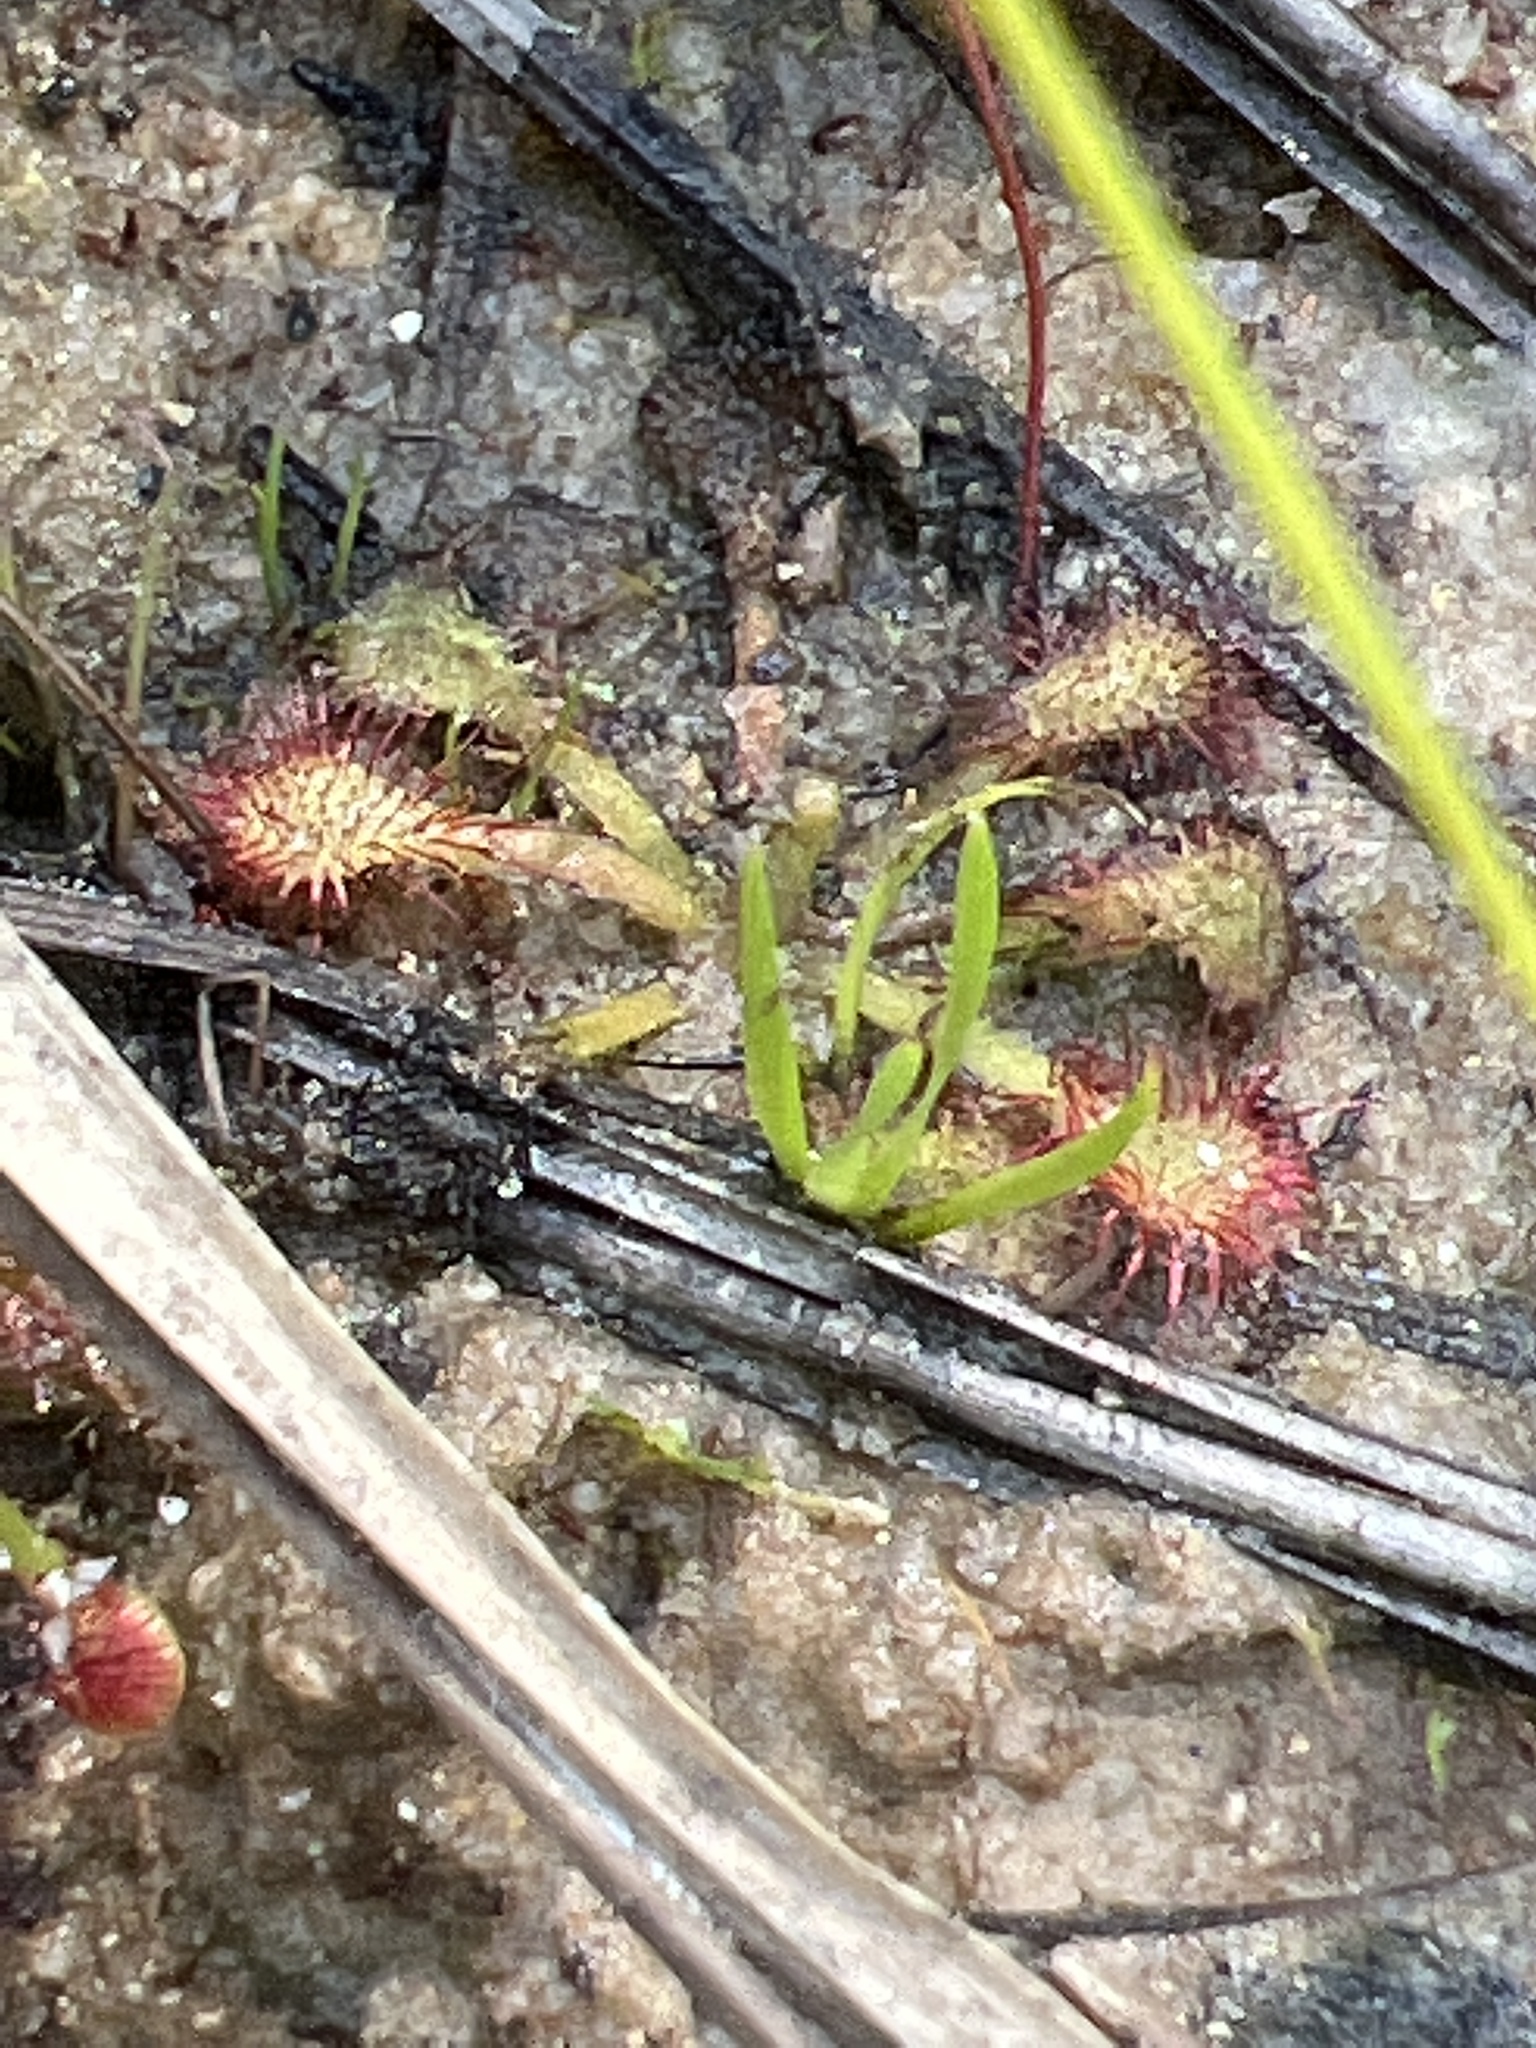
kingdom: Plantae
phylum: Tracheophyta
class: Magnoliopsida
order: Caryophyllales
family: Droseraceae
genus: Drosera
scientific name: Drosera capillaris
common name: Pink sundew
